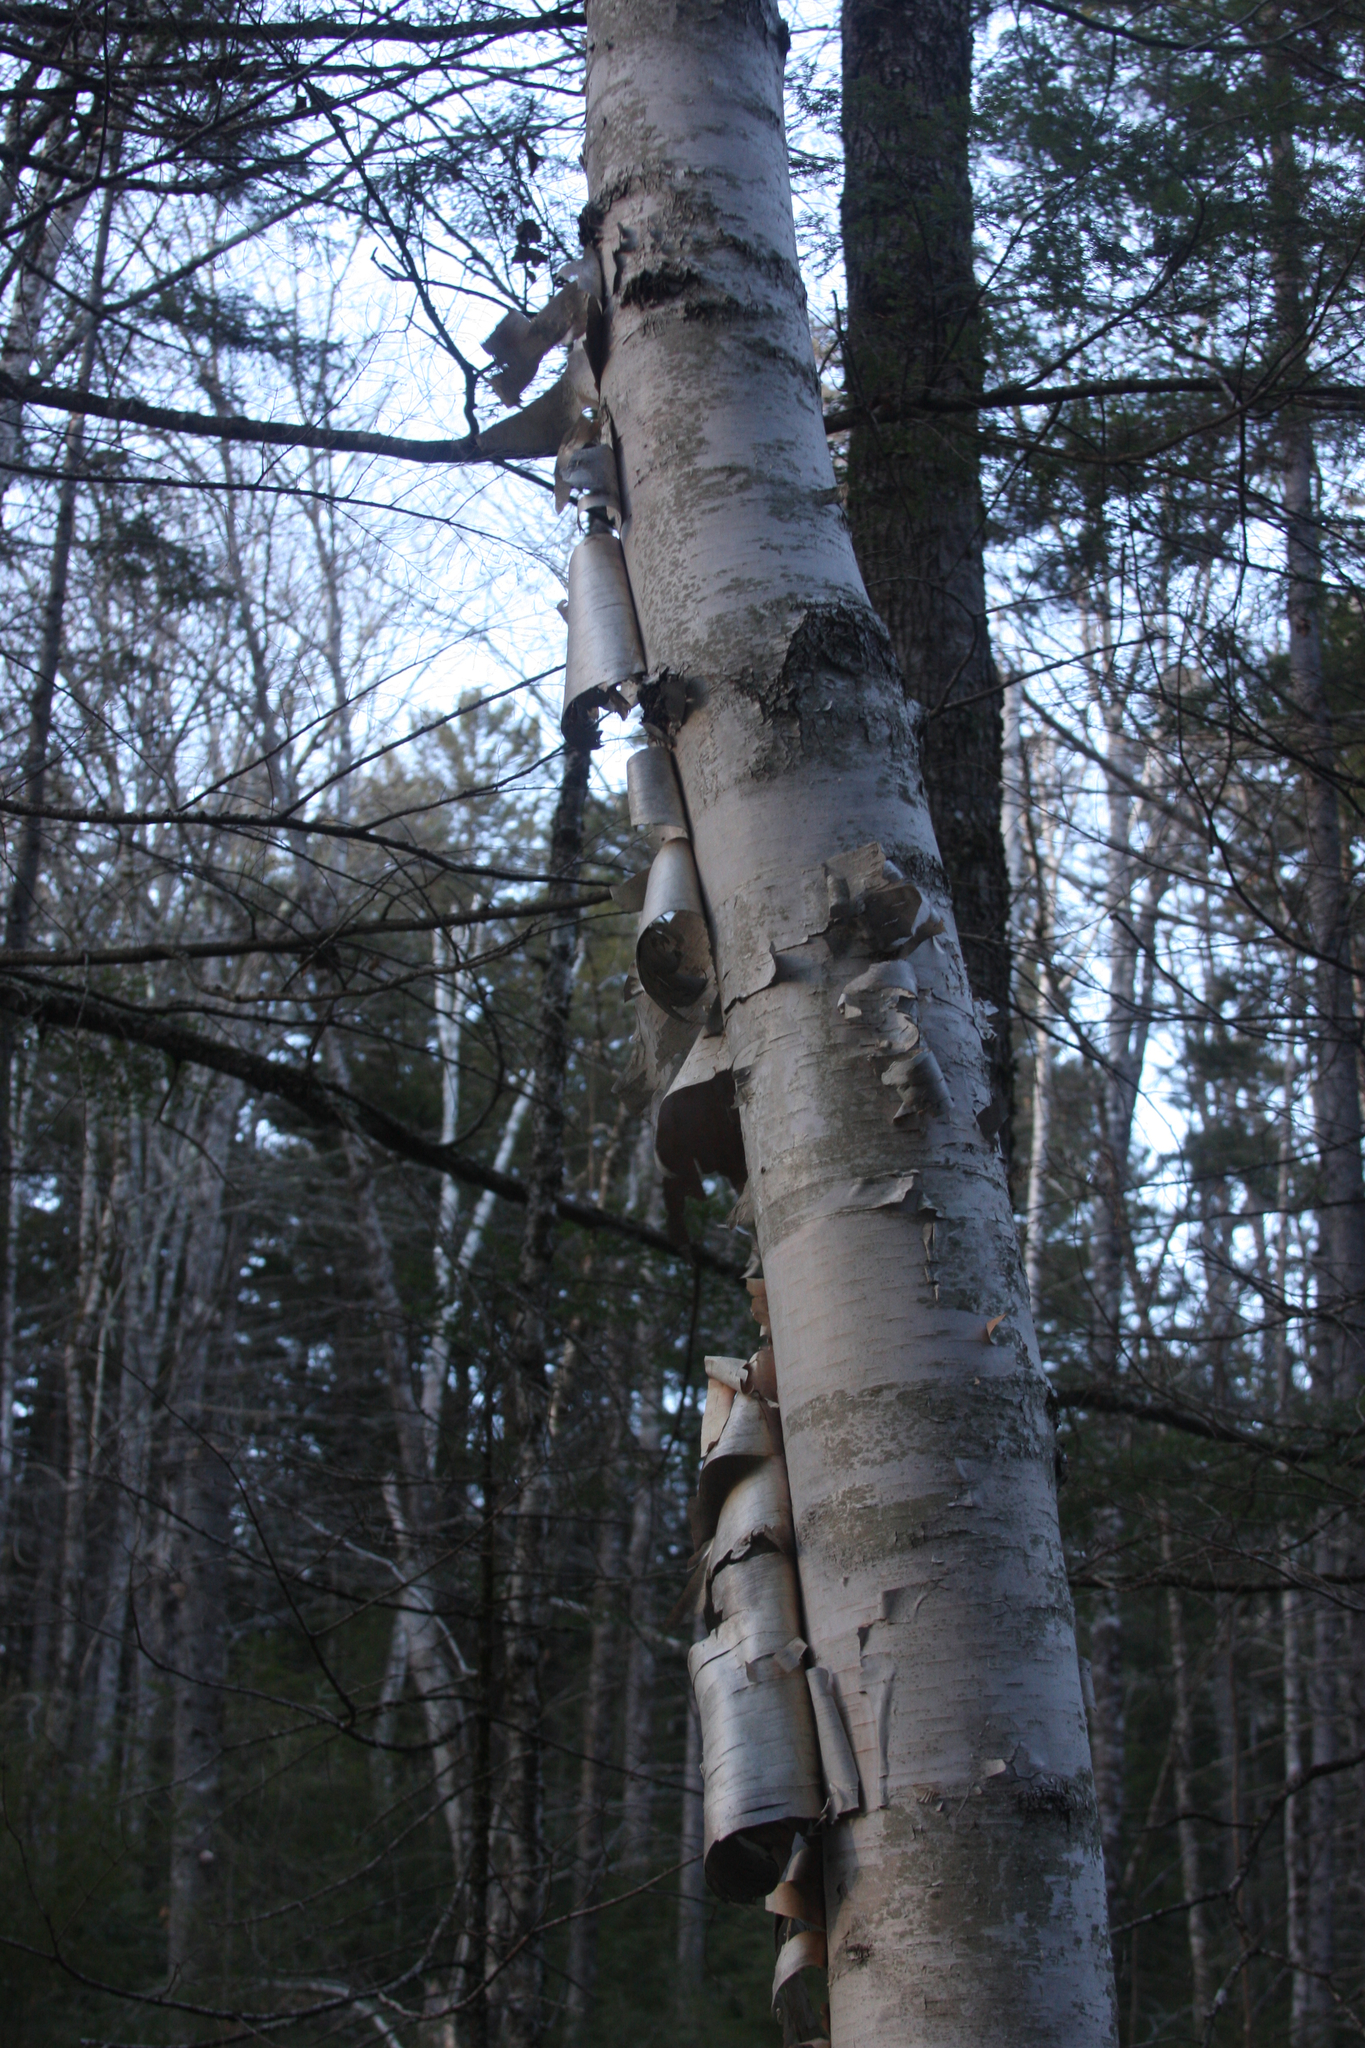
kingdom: Plantae
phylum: Tracheophyta
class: Magnoliopsida
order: Fagales
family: Betulaceae
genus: Betula
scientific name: Betula papyrifera
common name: Paper birch
